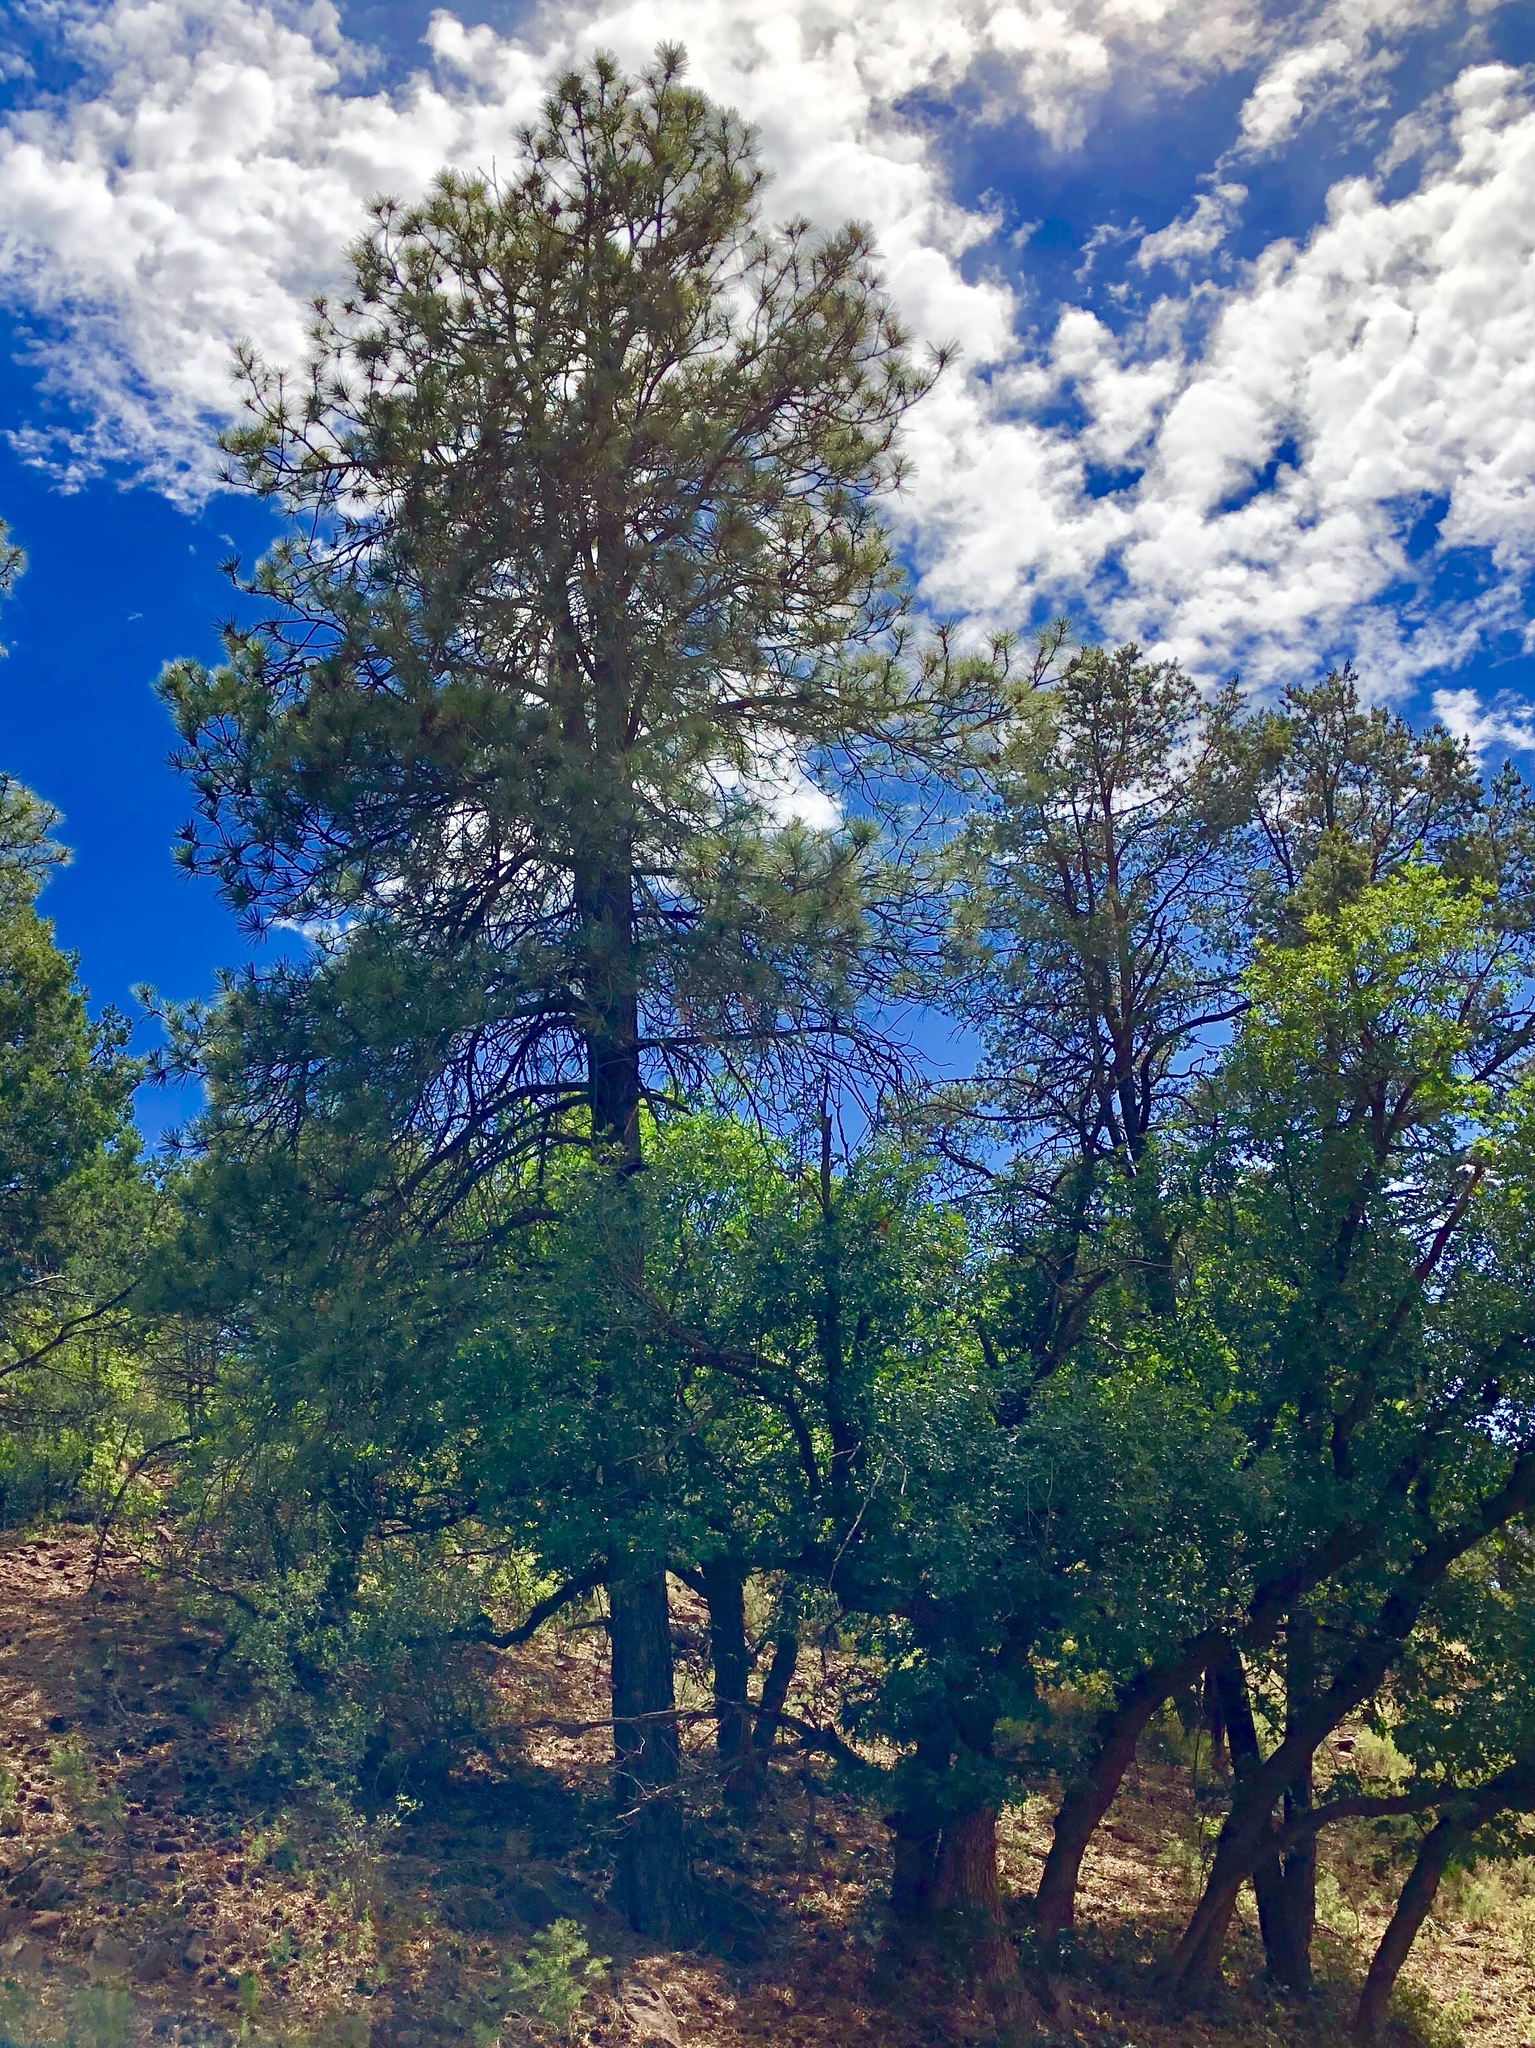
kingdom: Plantae
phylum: Tracheophyta
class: Pinopsida
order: Pinales
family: Pinaceae
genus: Pinus
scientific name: Pinus ponderosa
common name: Western yellow-pine
